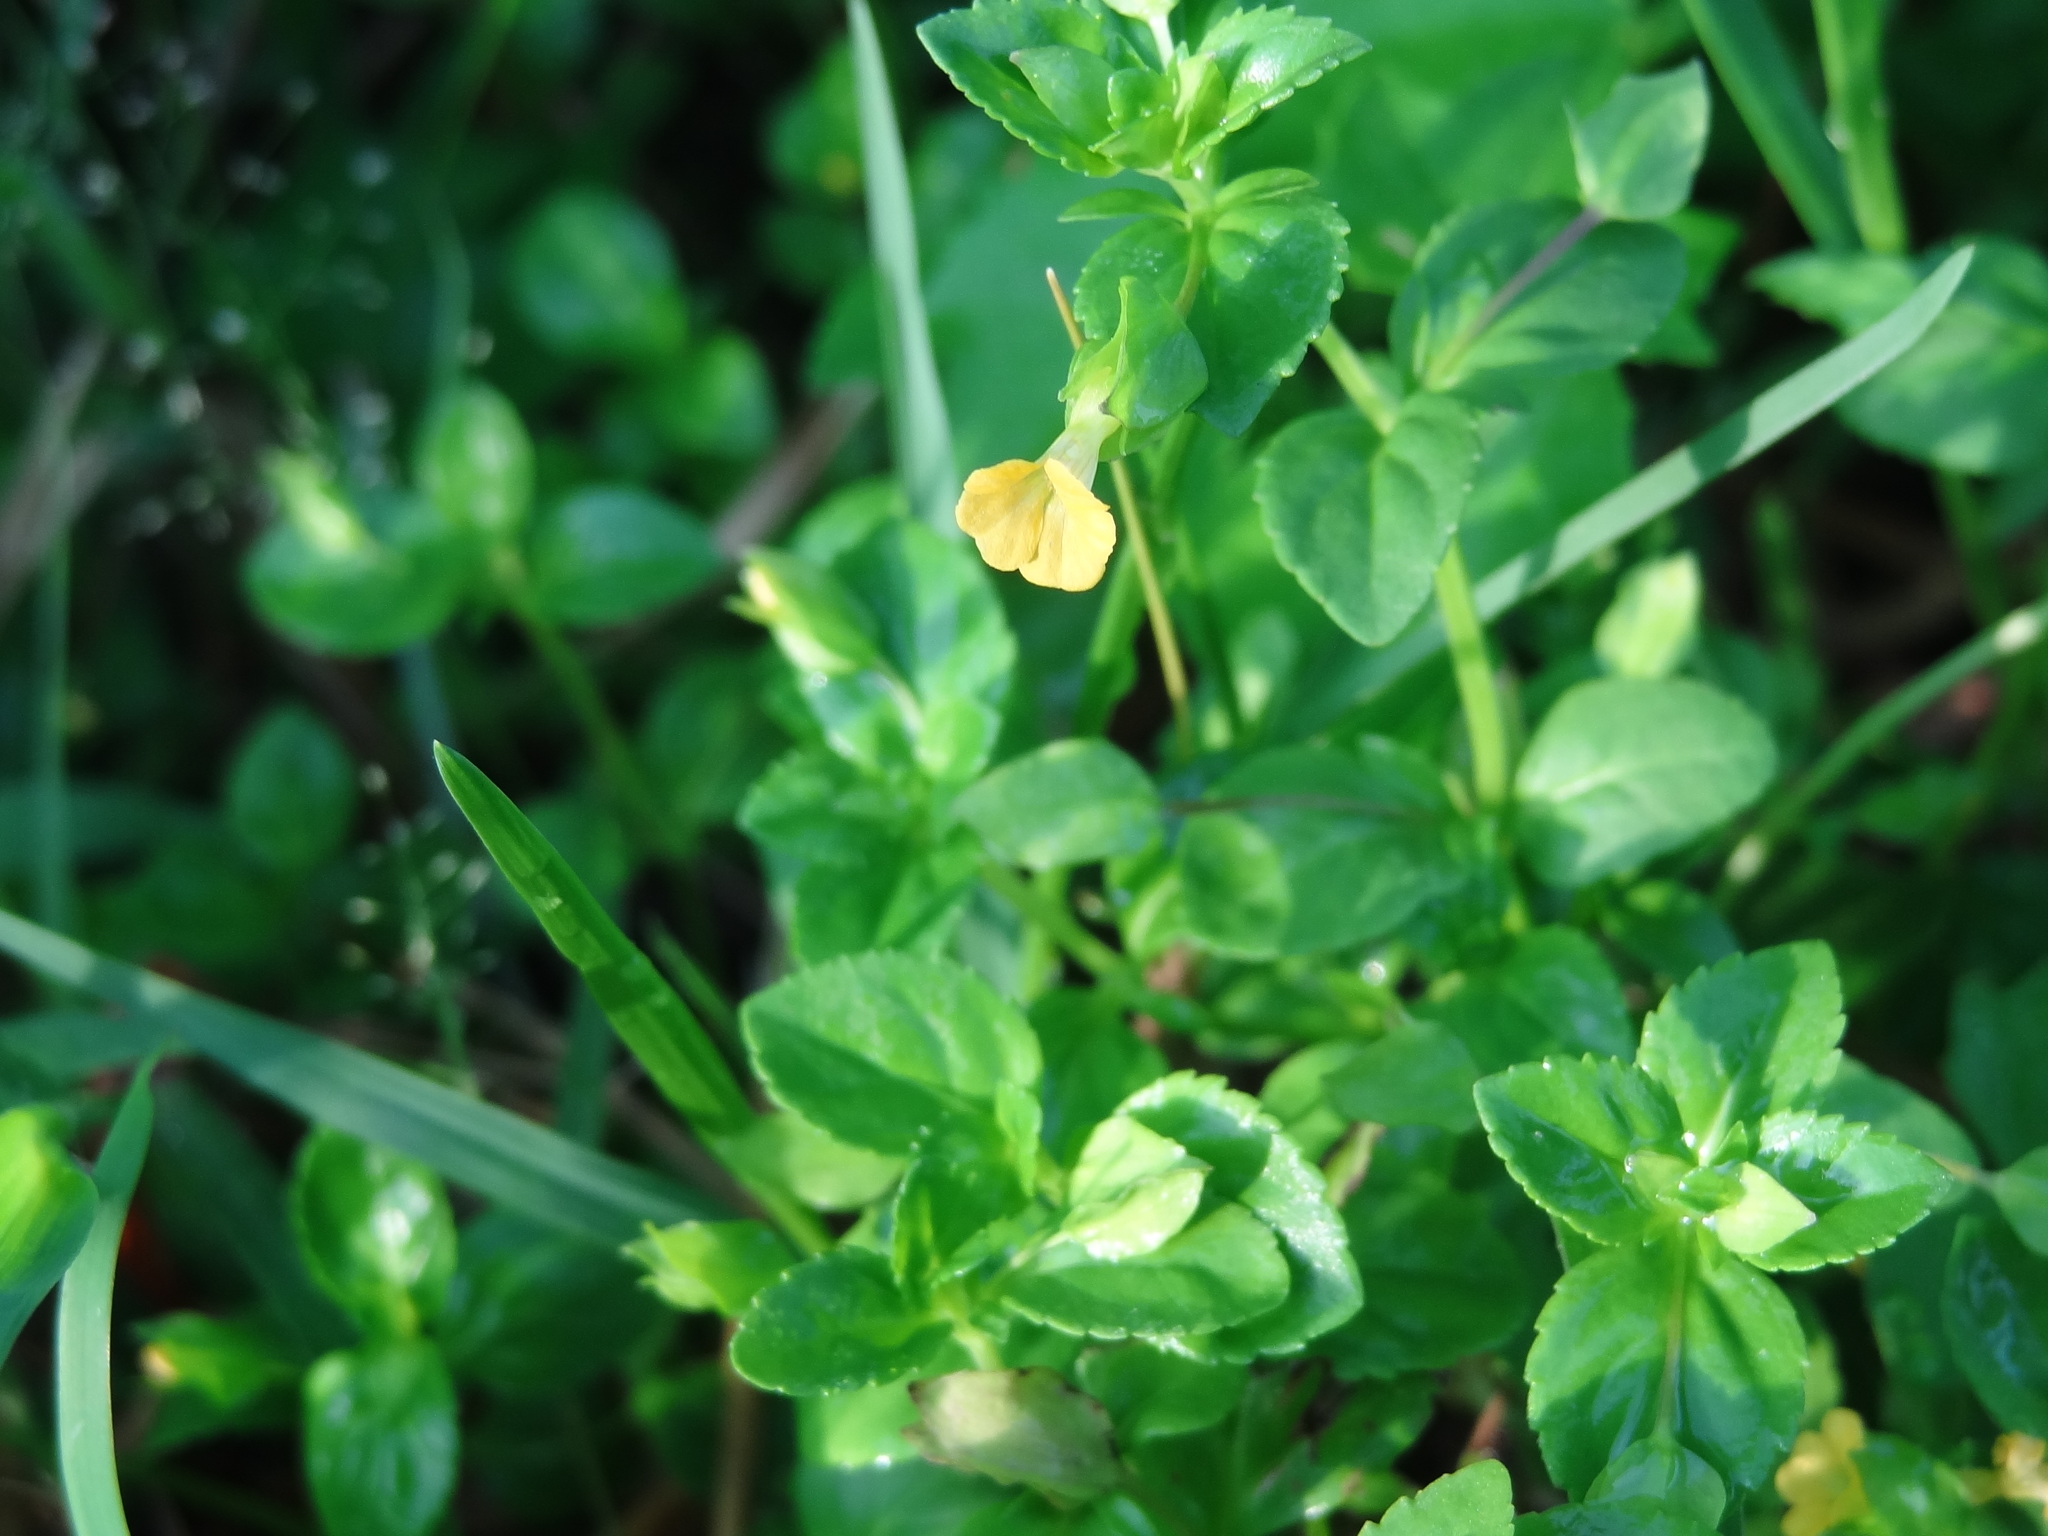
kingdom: Plantae
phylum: Tracheophyta
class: Magnoliopsida
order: Lamiales
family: Plantaginaceae
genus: Mecardonia
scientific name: Mecardonia procumbens
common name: Baby jump-up
